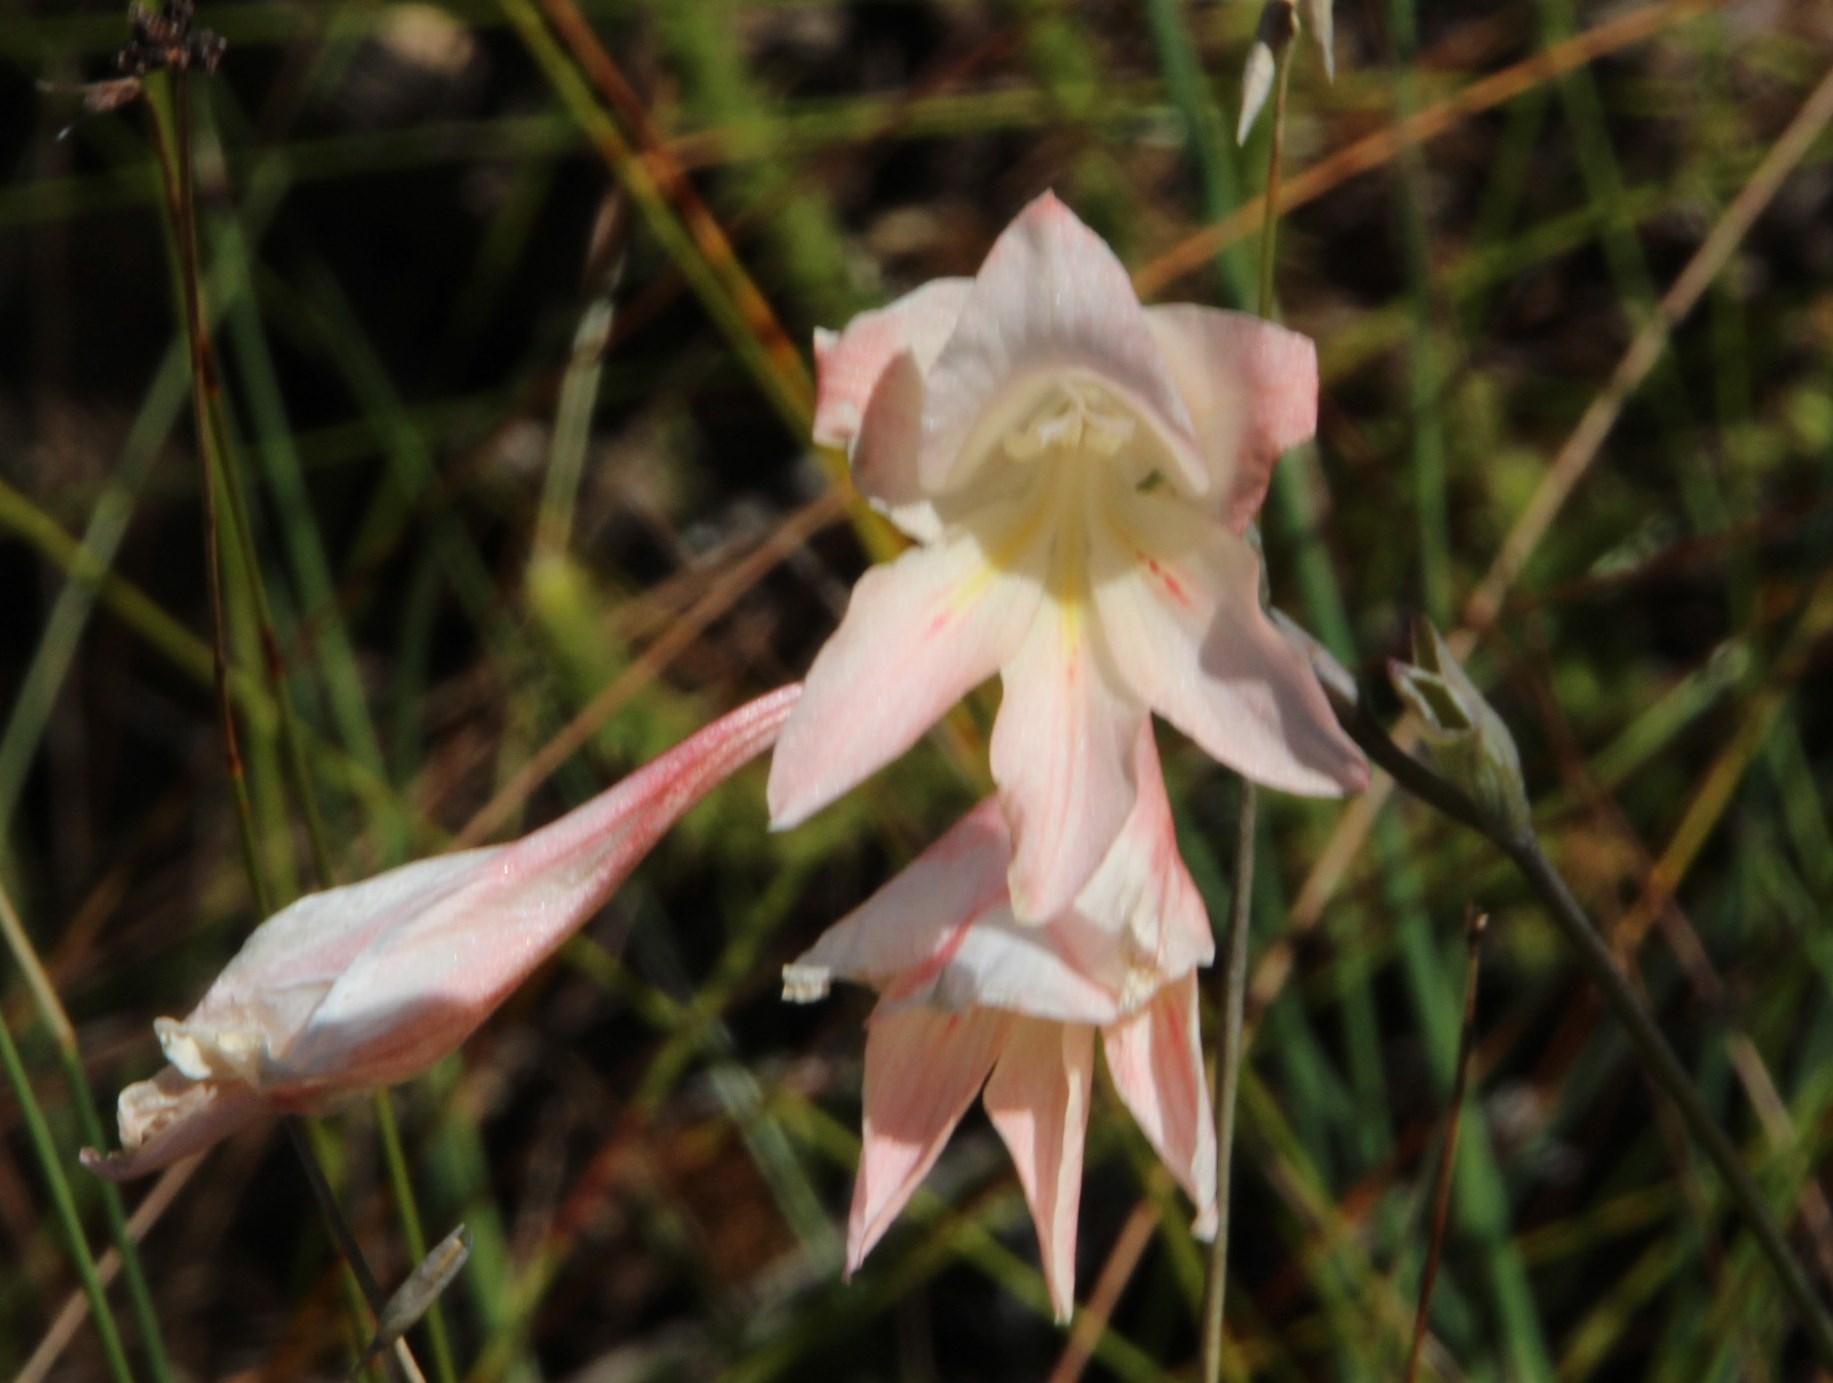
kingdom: Plantae
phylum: Tracheophyta
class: Liliopsida
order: Asparagales
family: Iridaceae
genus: Gladiolus
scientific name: Gladiolus monticola
